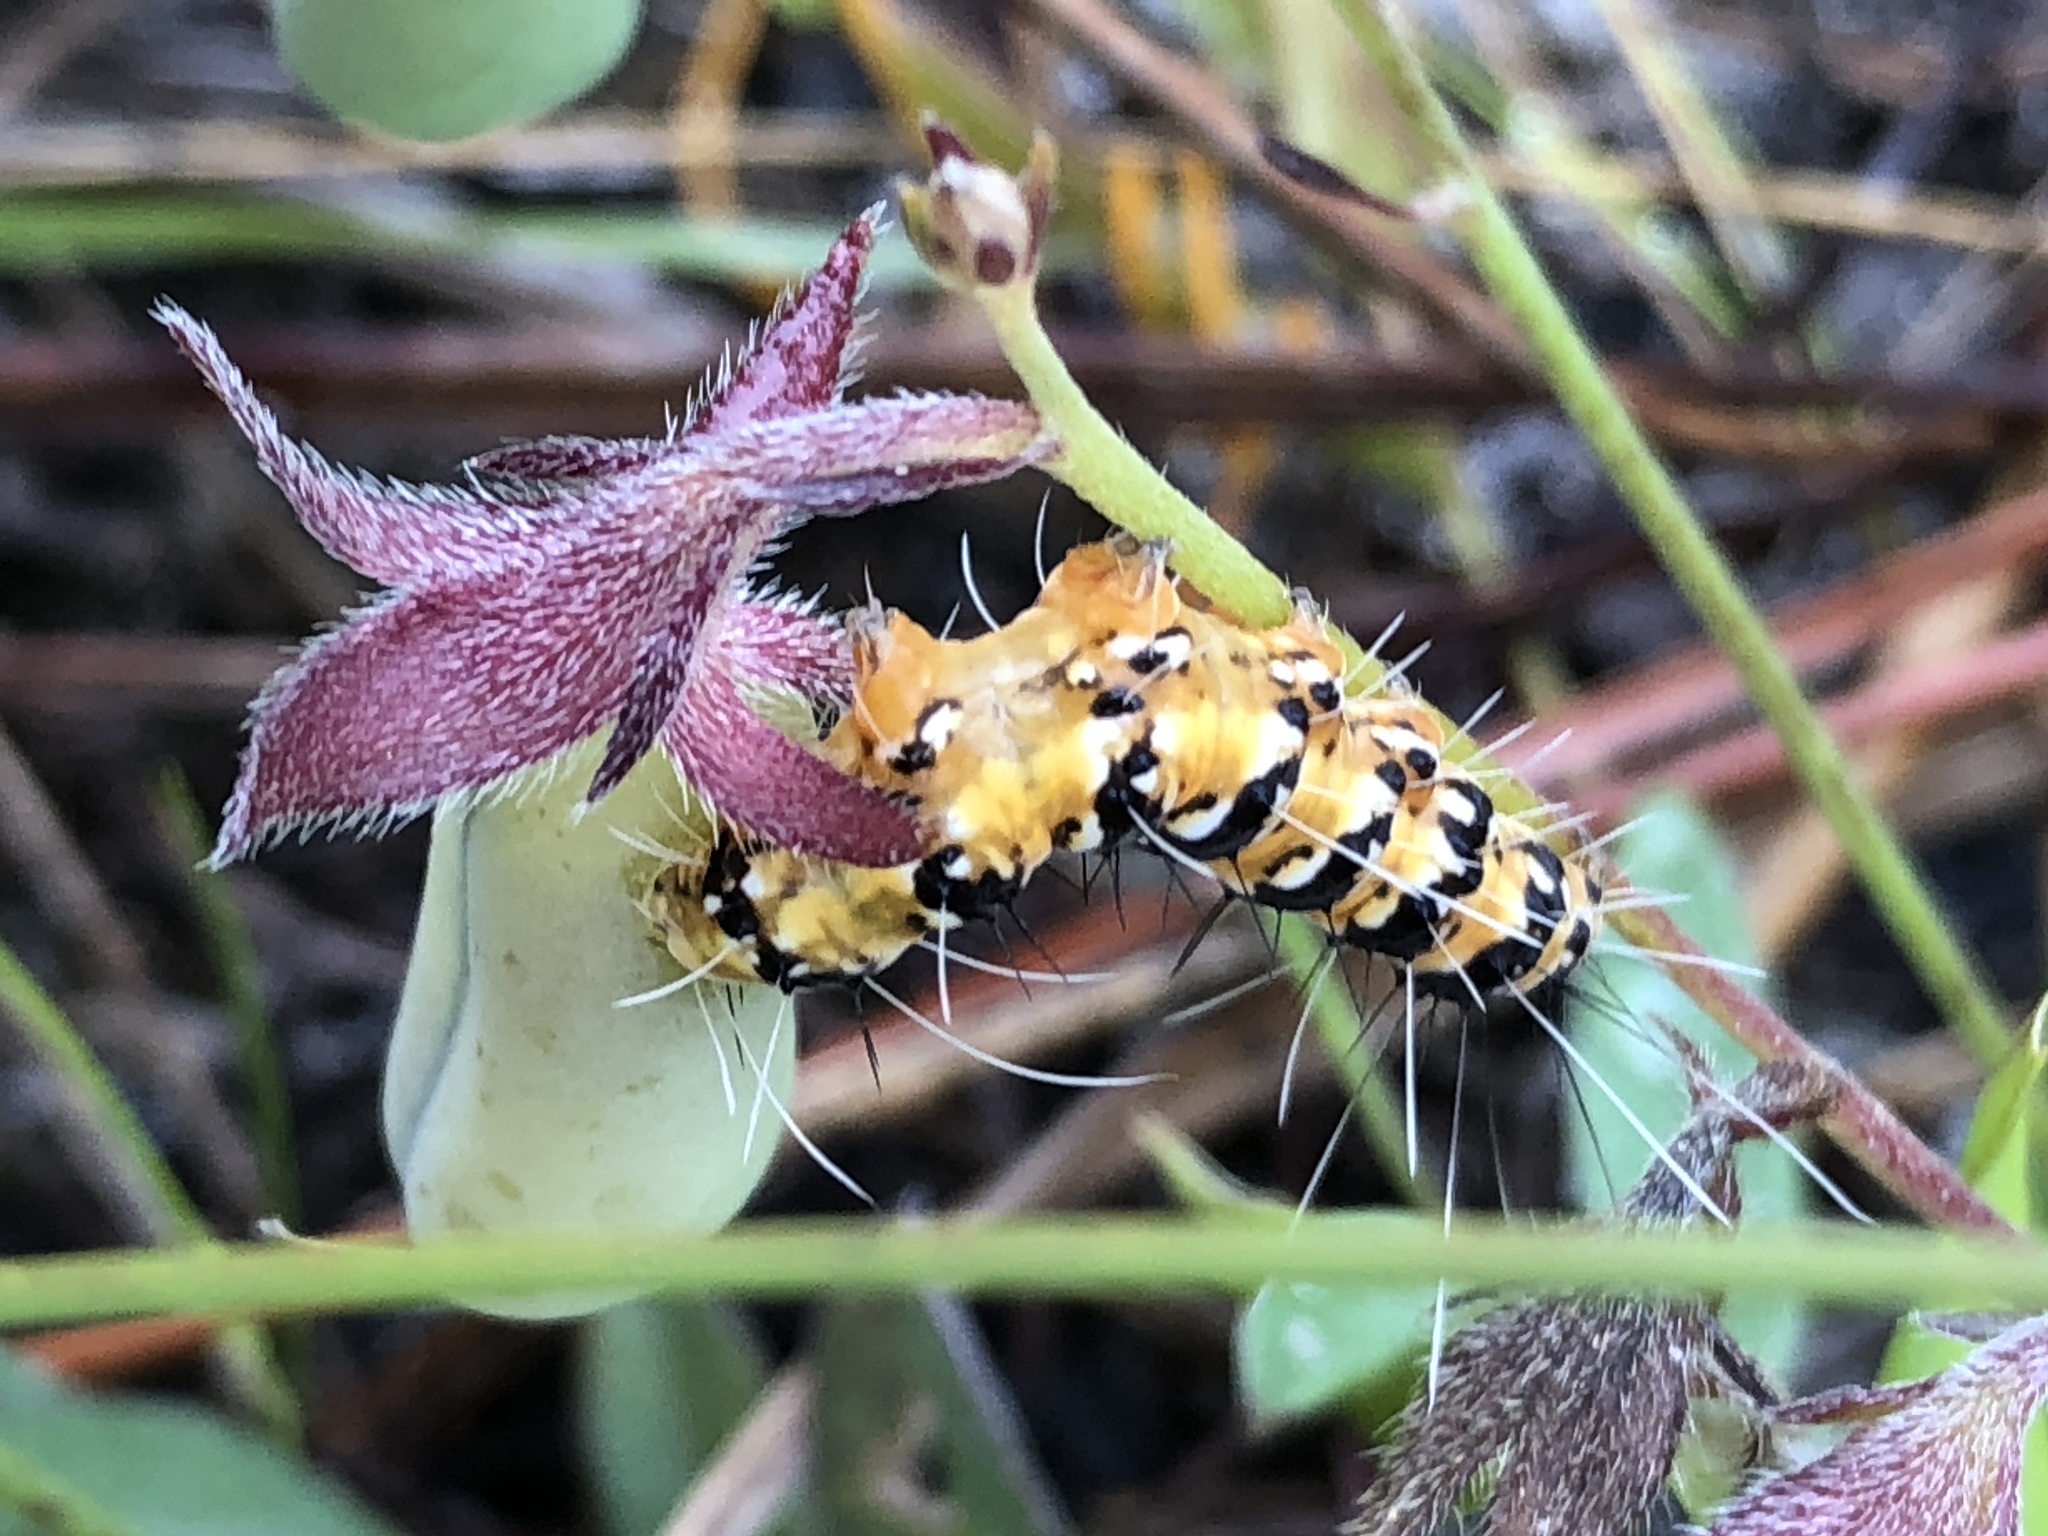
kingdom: Animalia
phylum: Arthropoda
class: Insecta
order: Lepidoptera
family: Erebidae
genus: Utetheisa
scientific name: Utetheisa ornatrix
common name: Beautiful utetheisa
